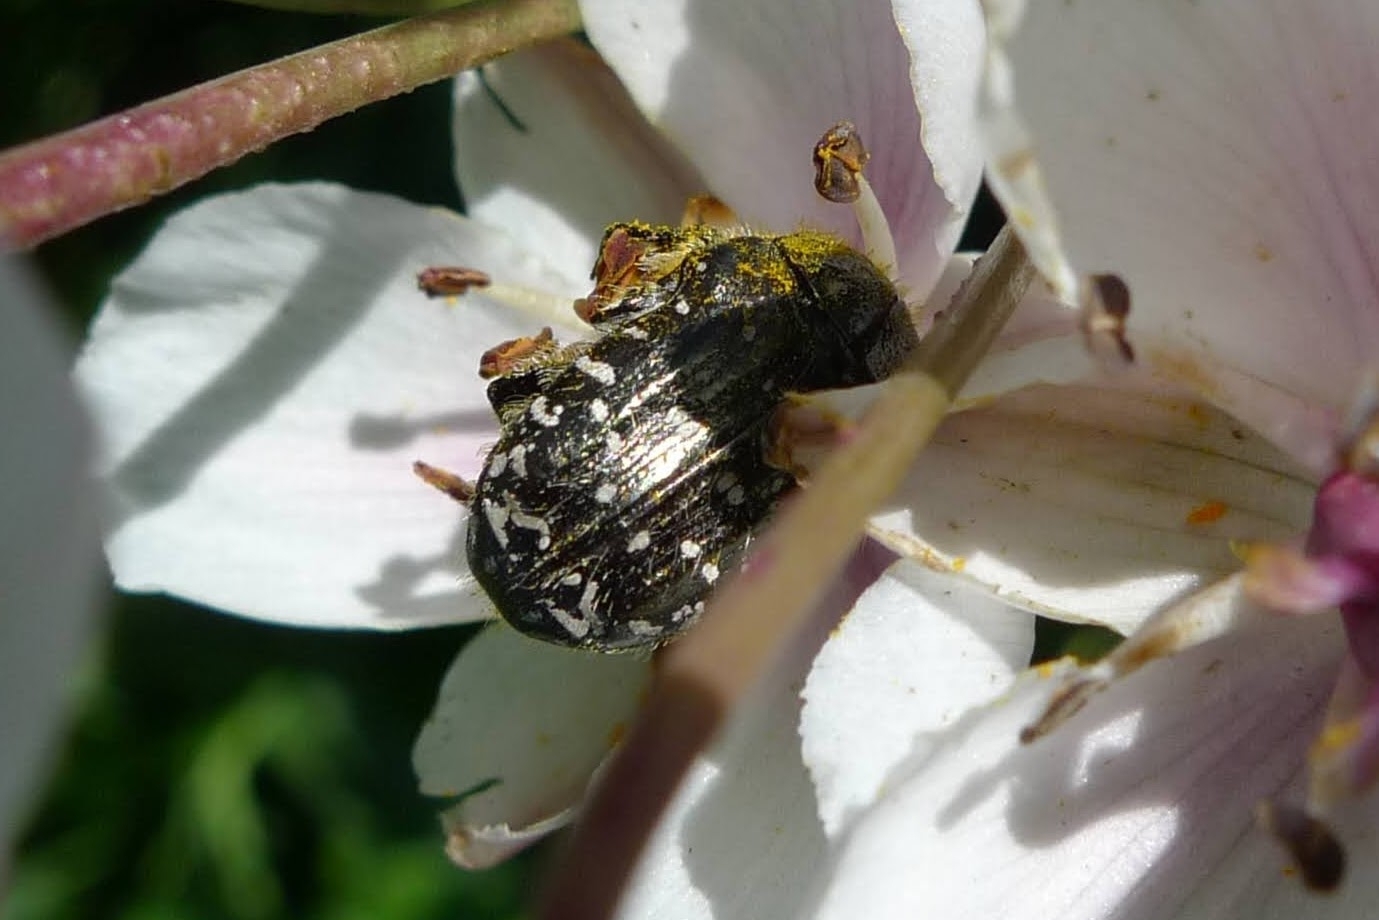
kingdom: Animalia
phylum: Arthropoda
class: Insecta
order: Coleoptera
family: Scarabaeidae
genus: Oxythyrea
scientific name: Oxythyrea funesta
